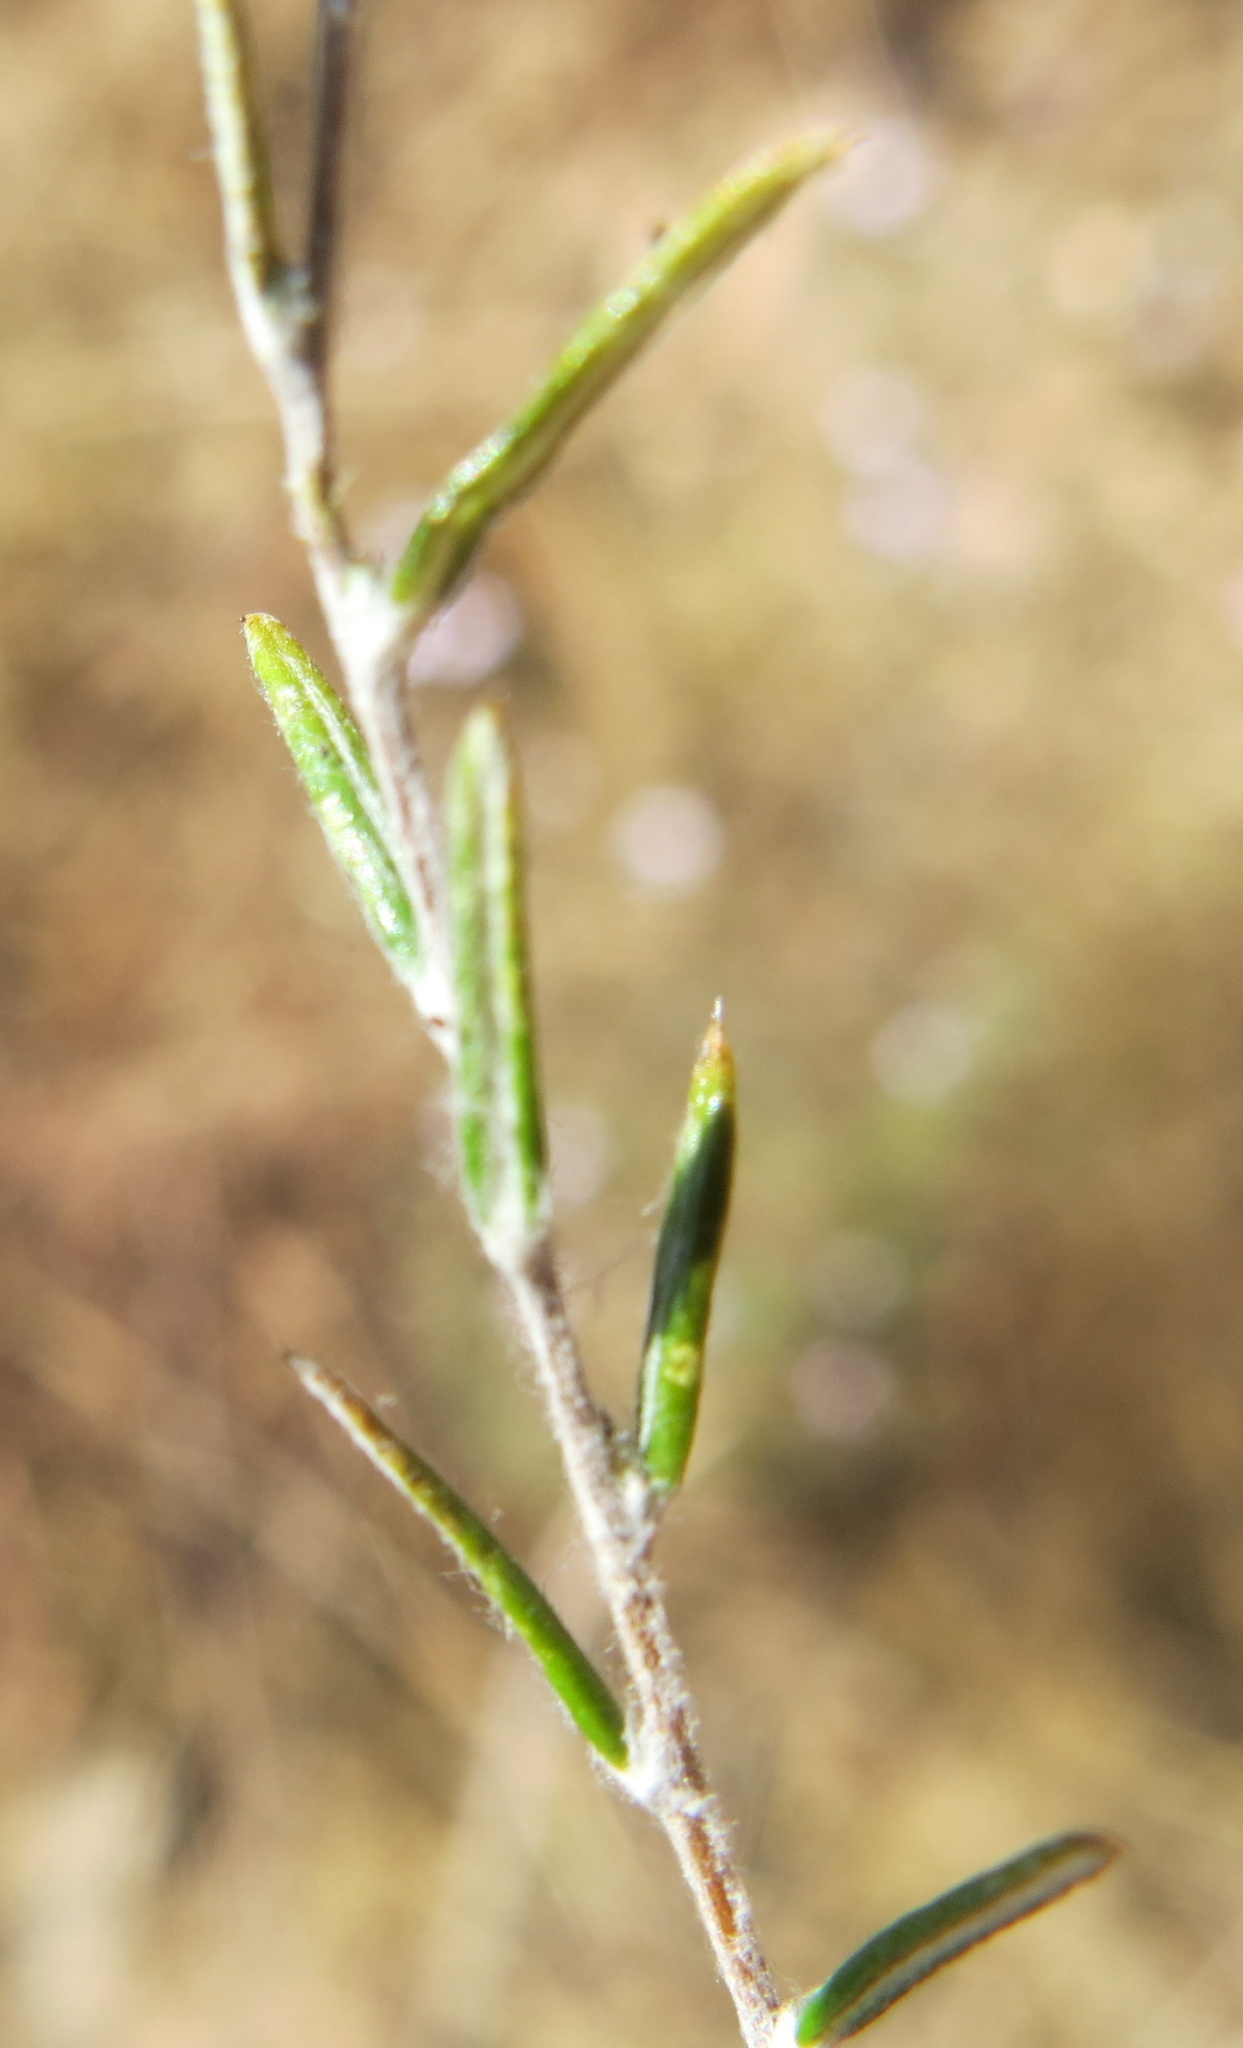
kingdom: Plantae
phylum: Tracheophyta
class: Magnoliopsida
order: Asterales
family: Asteraceae
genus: Athrixia
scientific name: Athrixia elata
